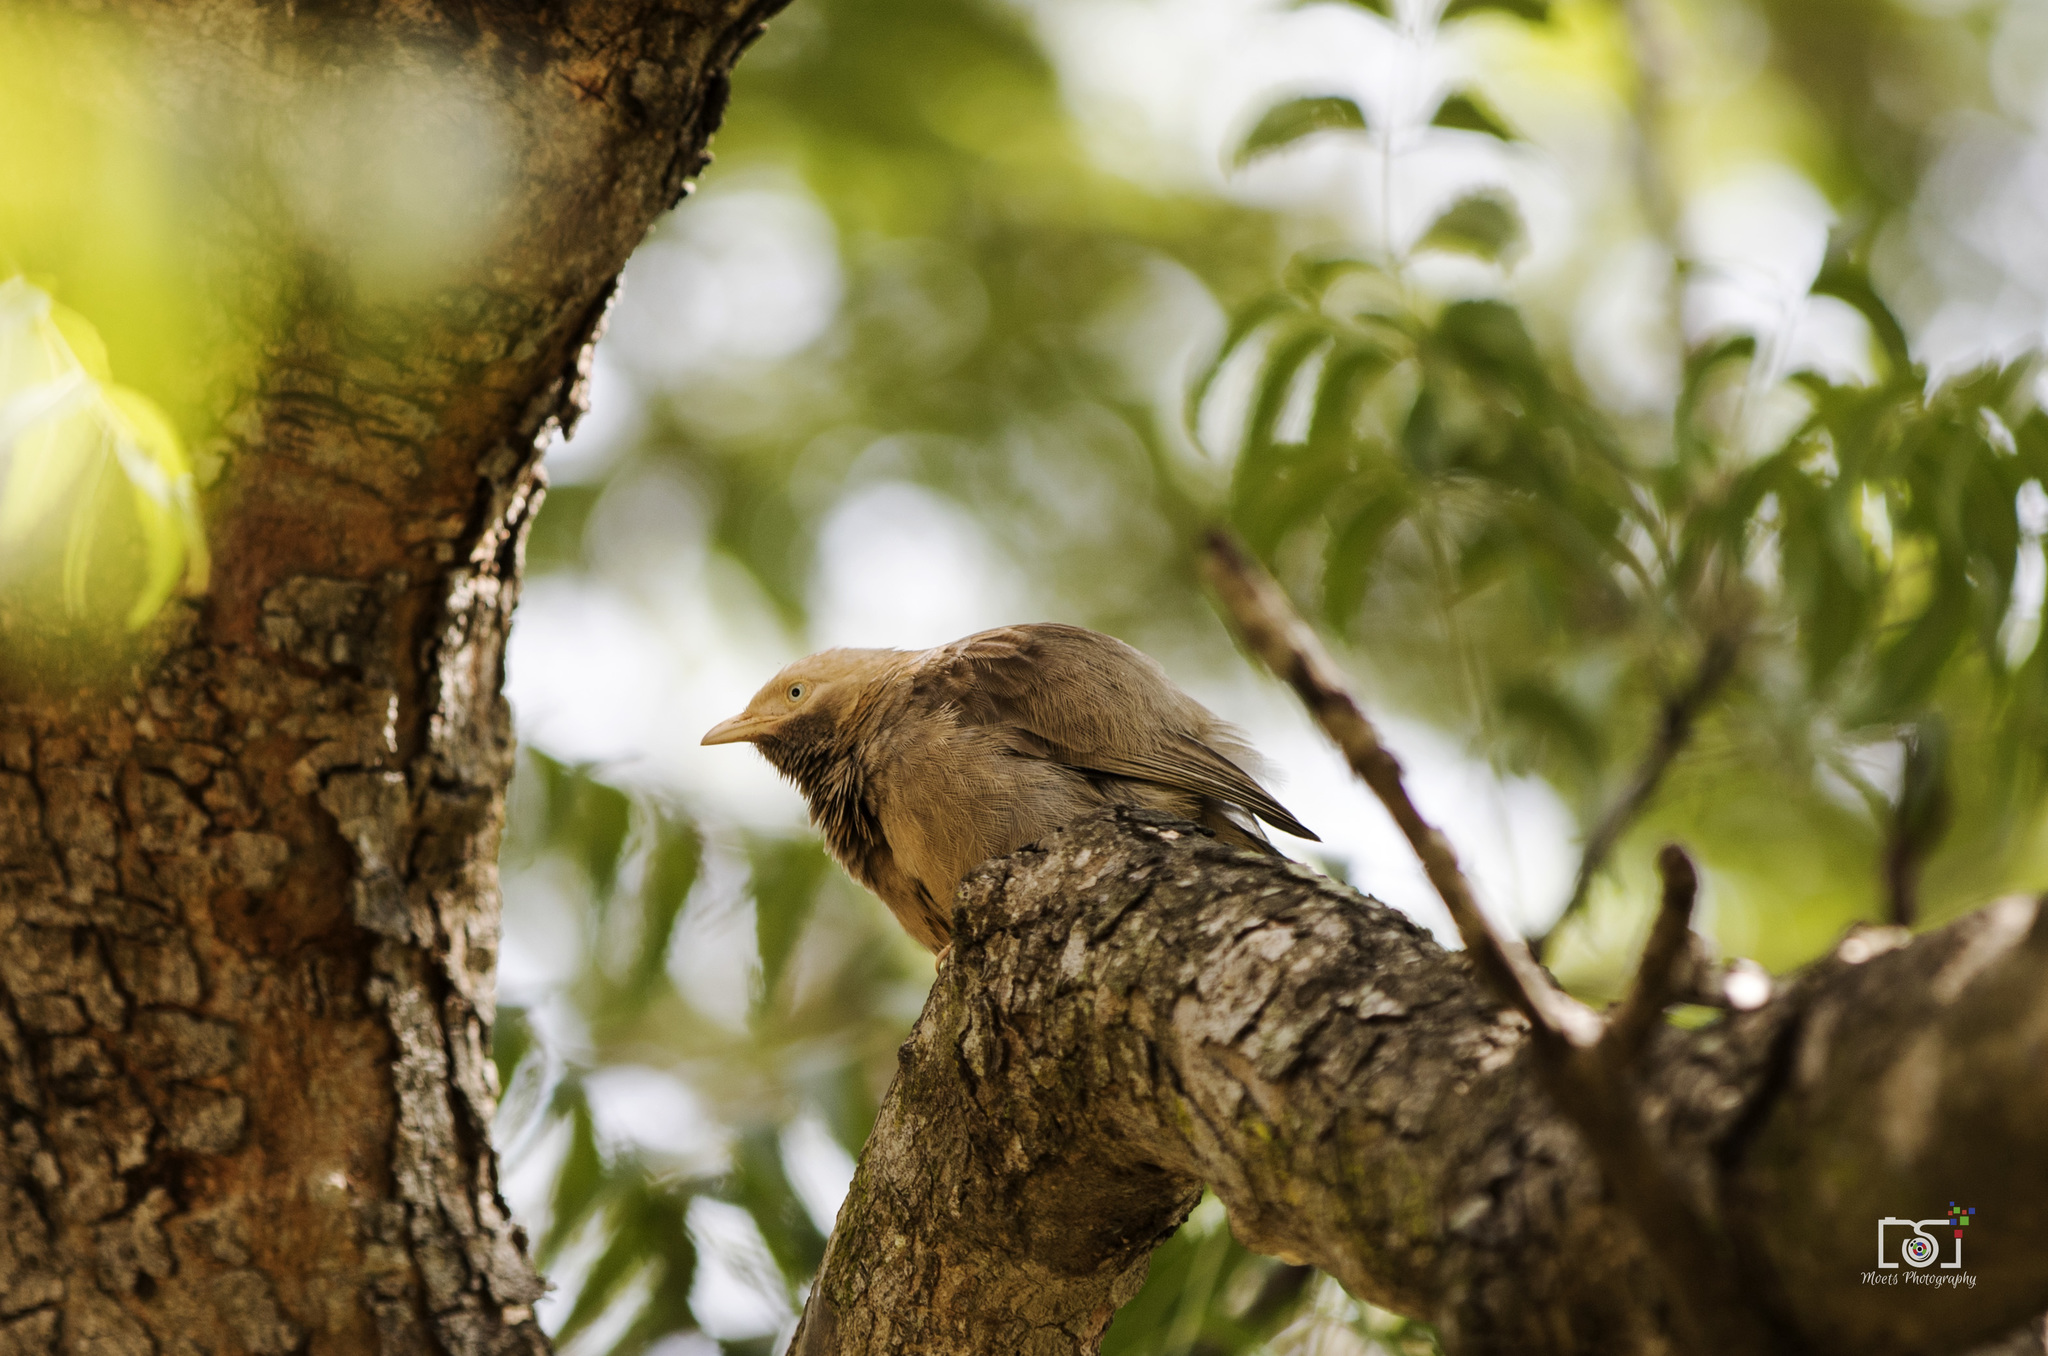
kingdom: Animalia
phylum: Chordata
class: Aves
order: Passeriformes
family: Leiothrichidae
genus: Turdoides
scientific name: Turdoides striata
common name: Jungle babbler
